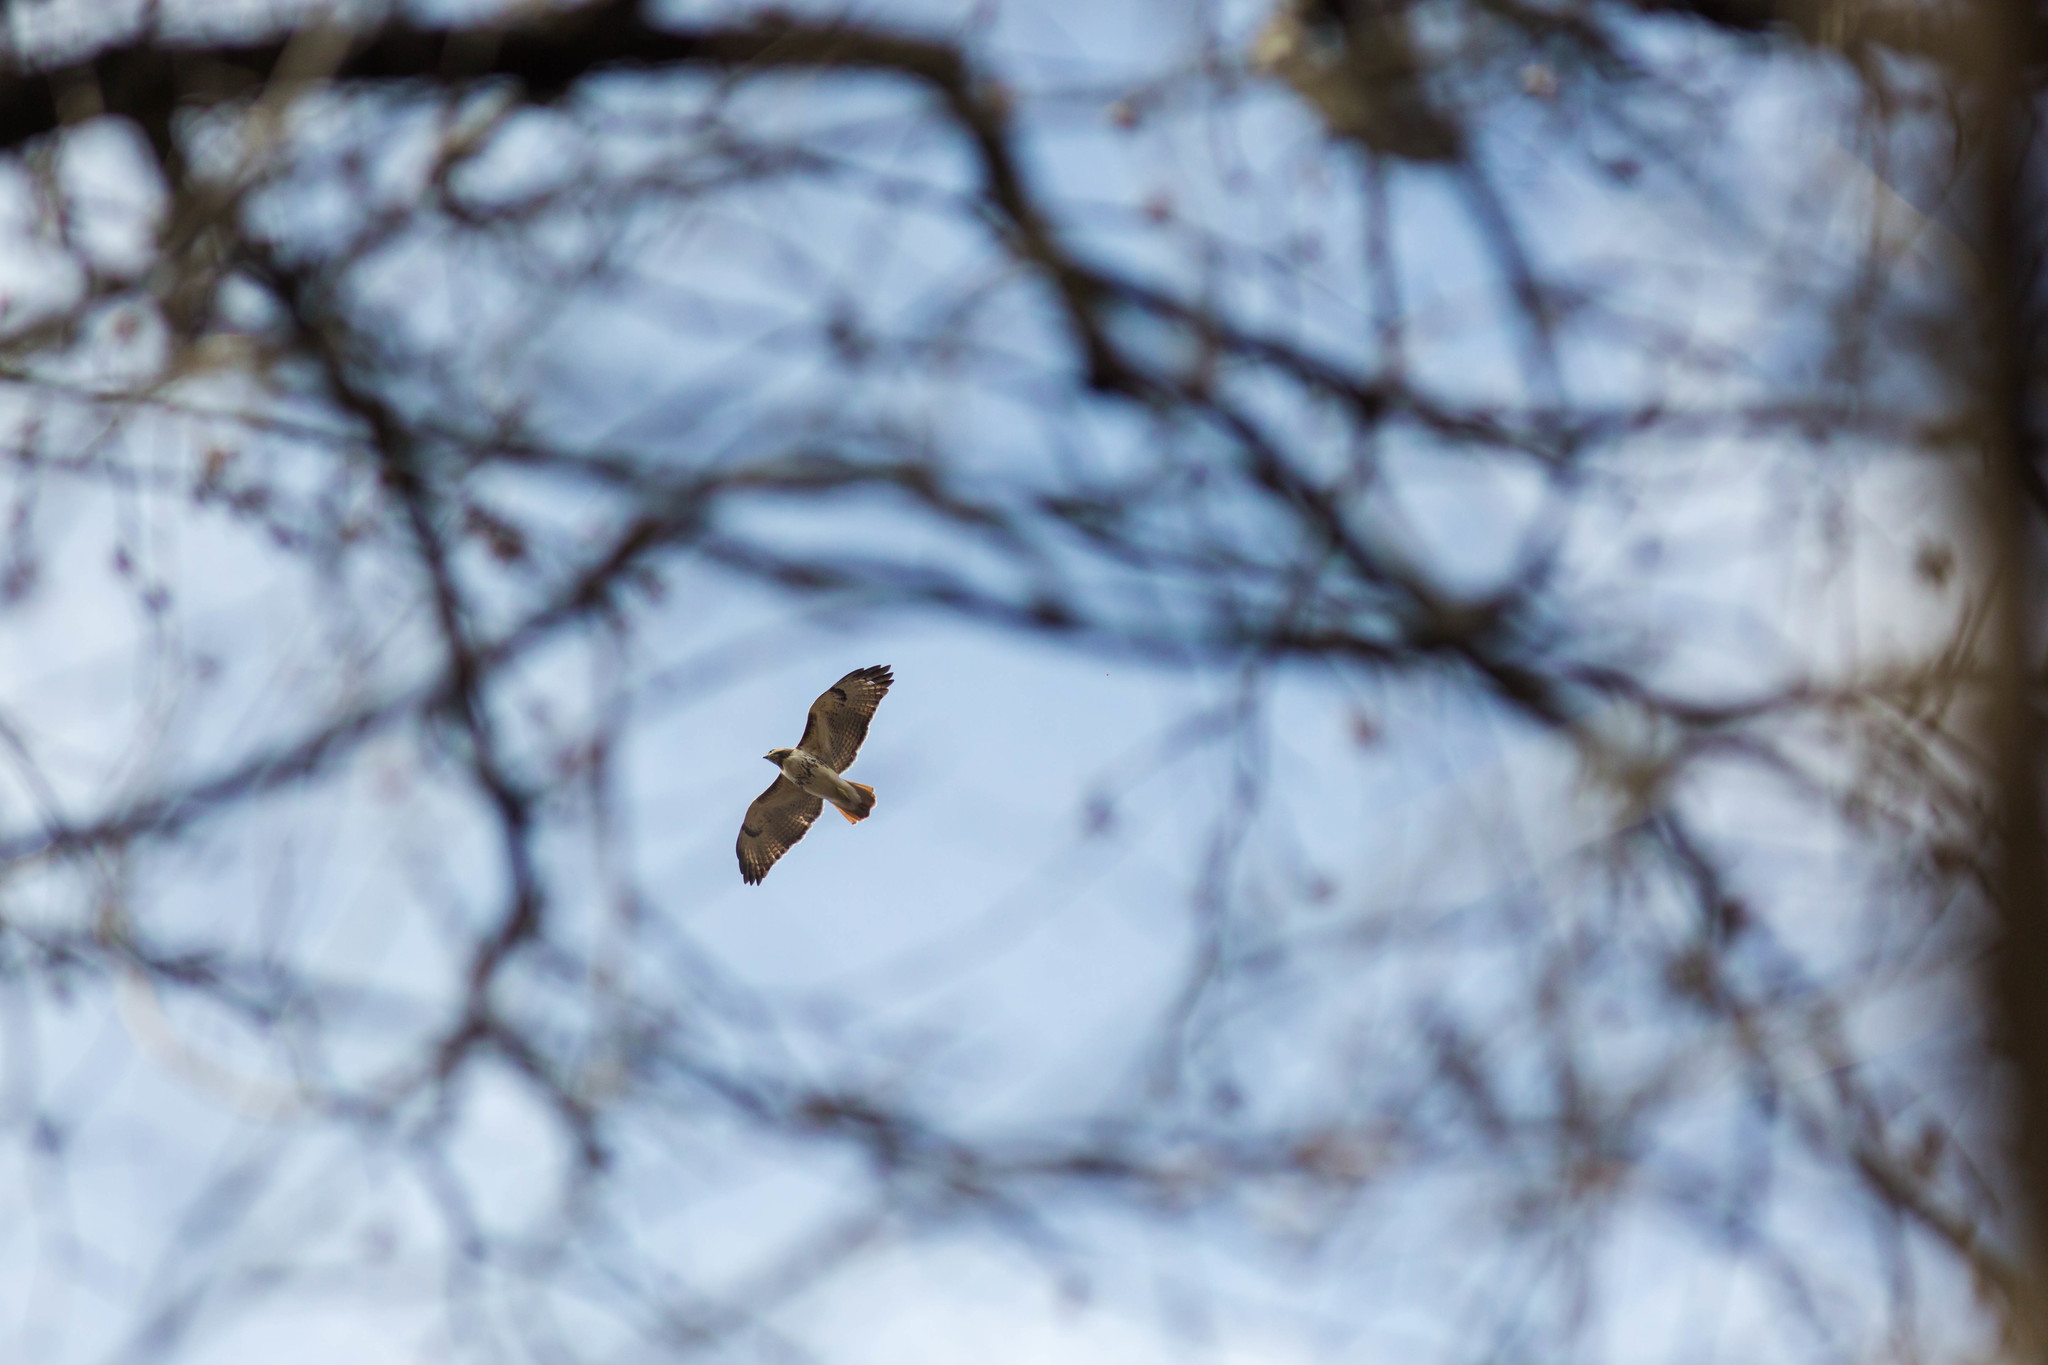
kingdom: Animalia
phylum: Chordata
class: Aves
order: Accipitriformes
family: Accipitridae
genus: Buteo
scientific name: Buteo jamaicensis
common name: Red-tailed hawk
